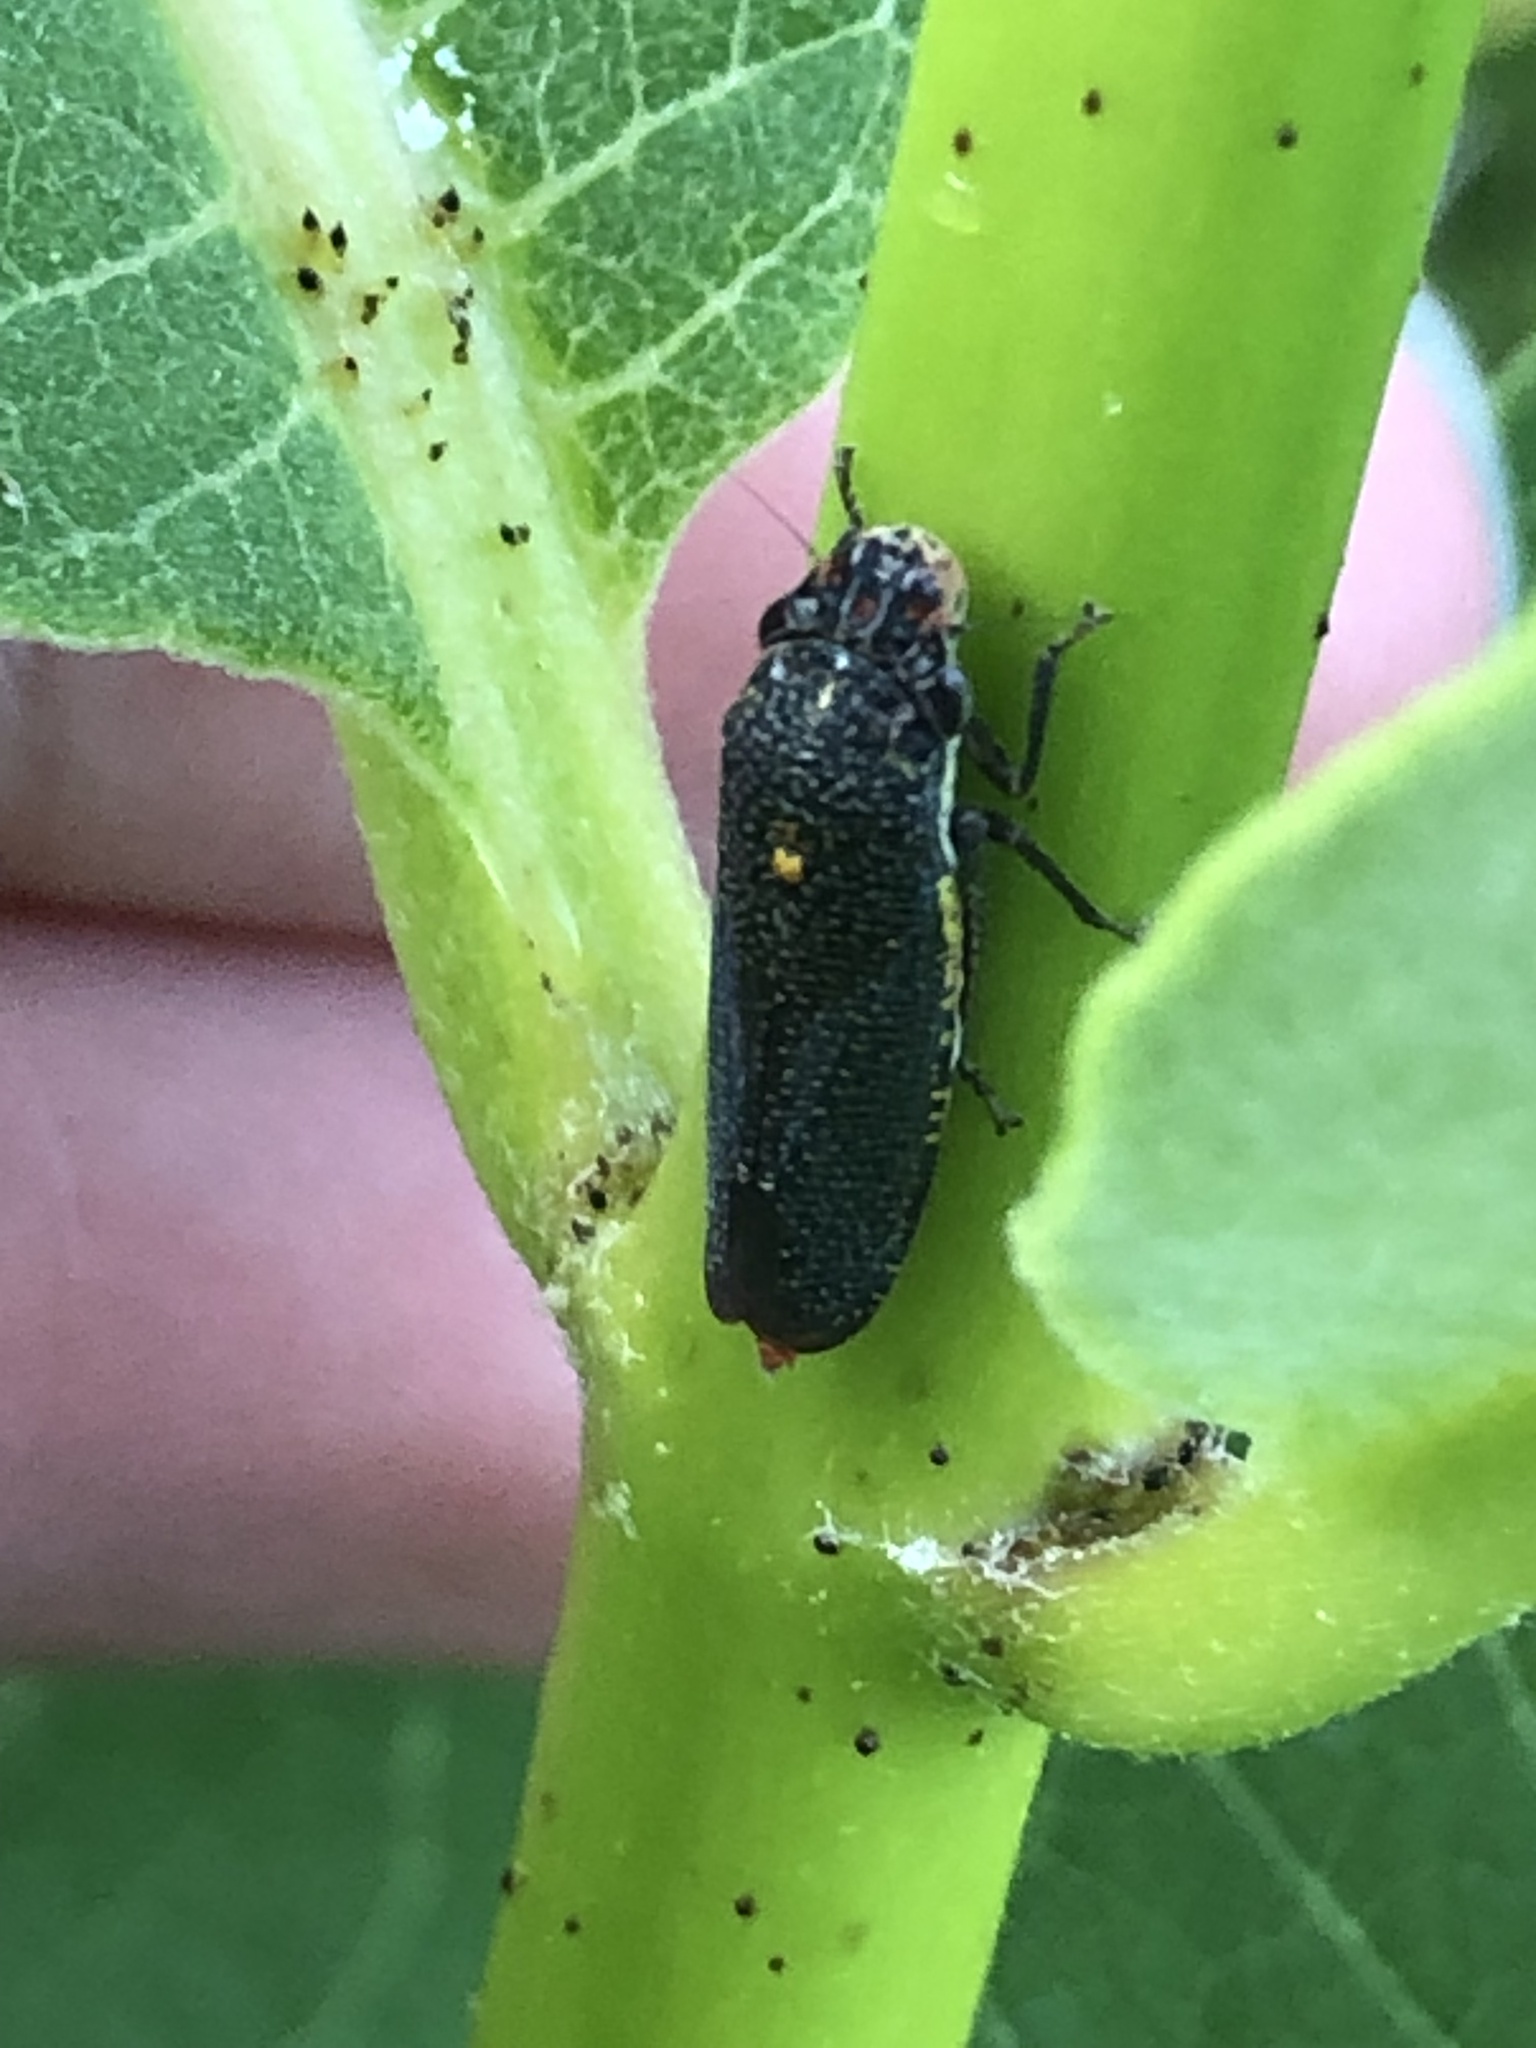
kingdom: Animalia
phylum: Arthropoda
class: Insecta
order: Hemiptera
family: Cicadellidae
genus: Paraulacizes
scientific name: Paraulacizes irrorata
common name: Speckled sharpshooter
